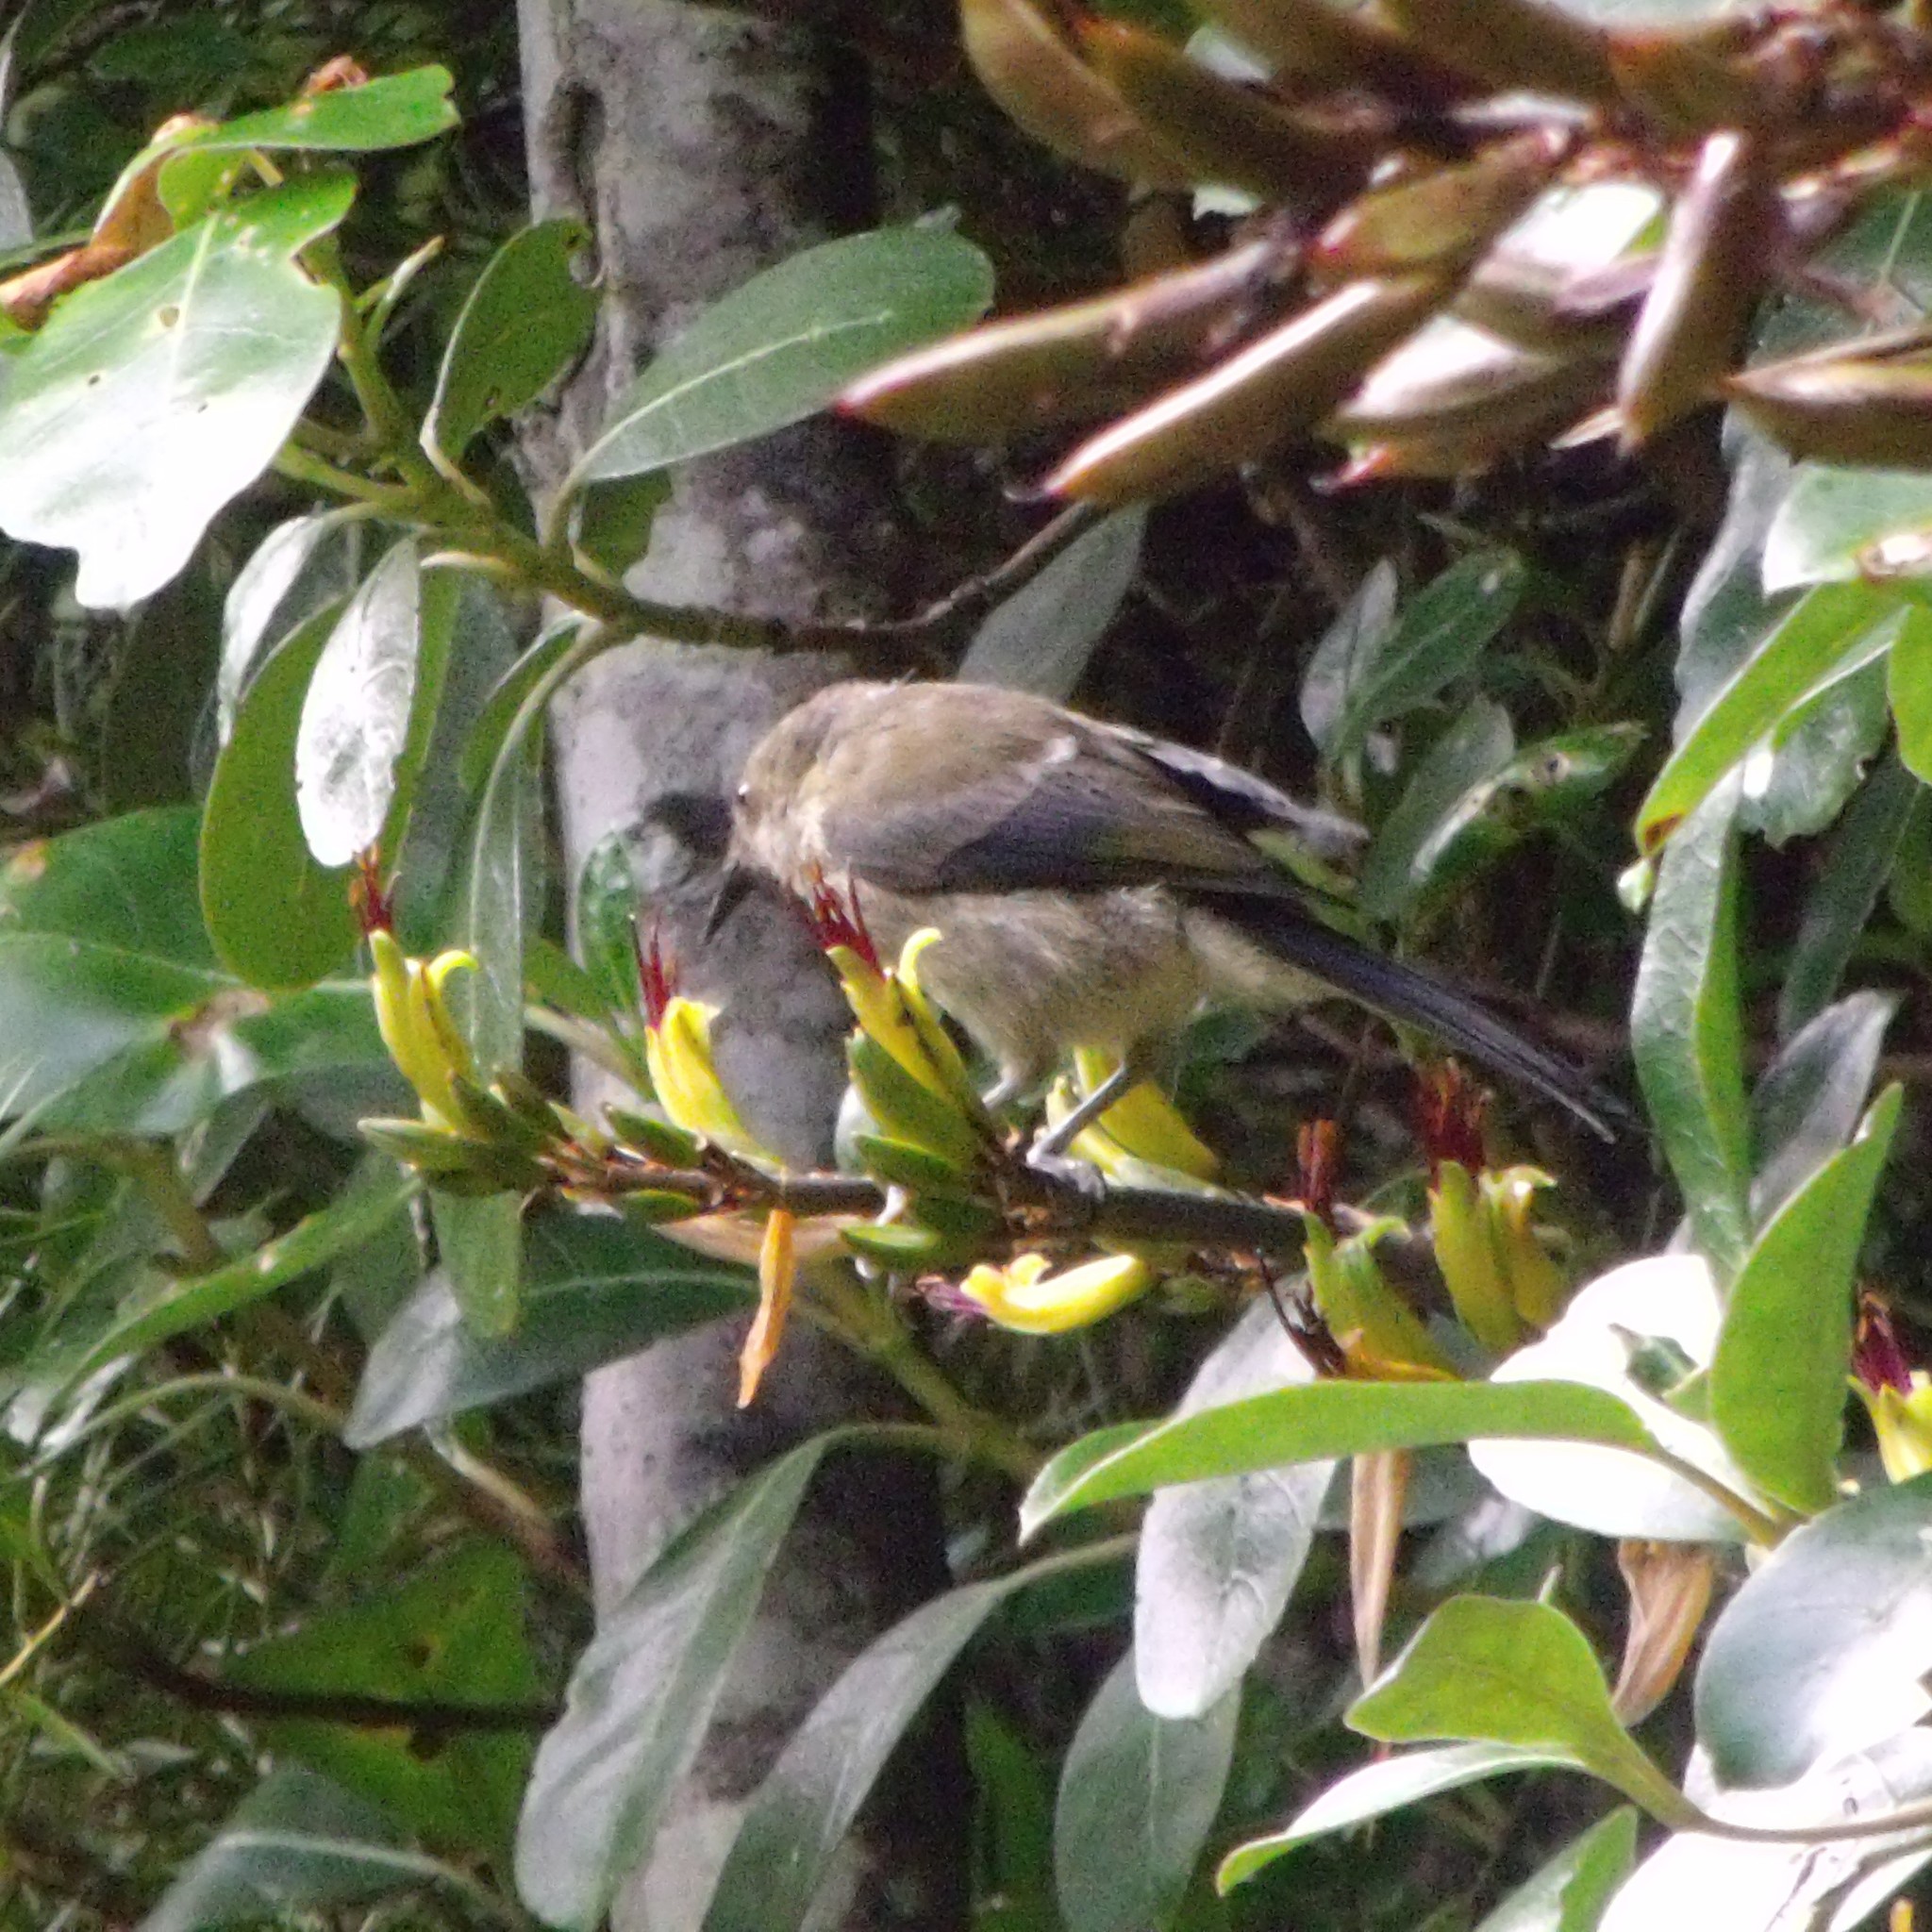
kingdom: Animalia
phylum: Chordata
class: Aves
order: Passeriformes
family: Meliphagidae
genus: Anthornis
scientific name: Anthornis melanura
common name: New zealand bellbird
